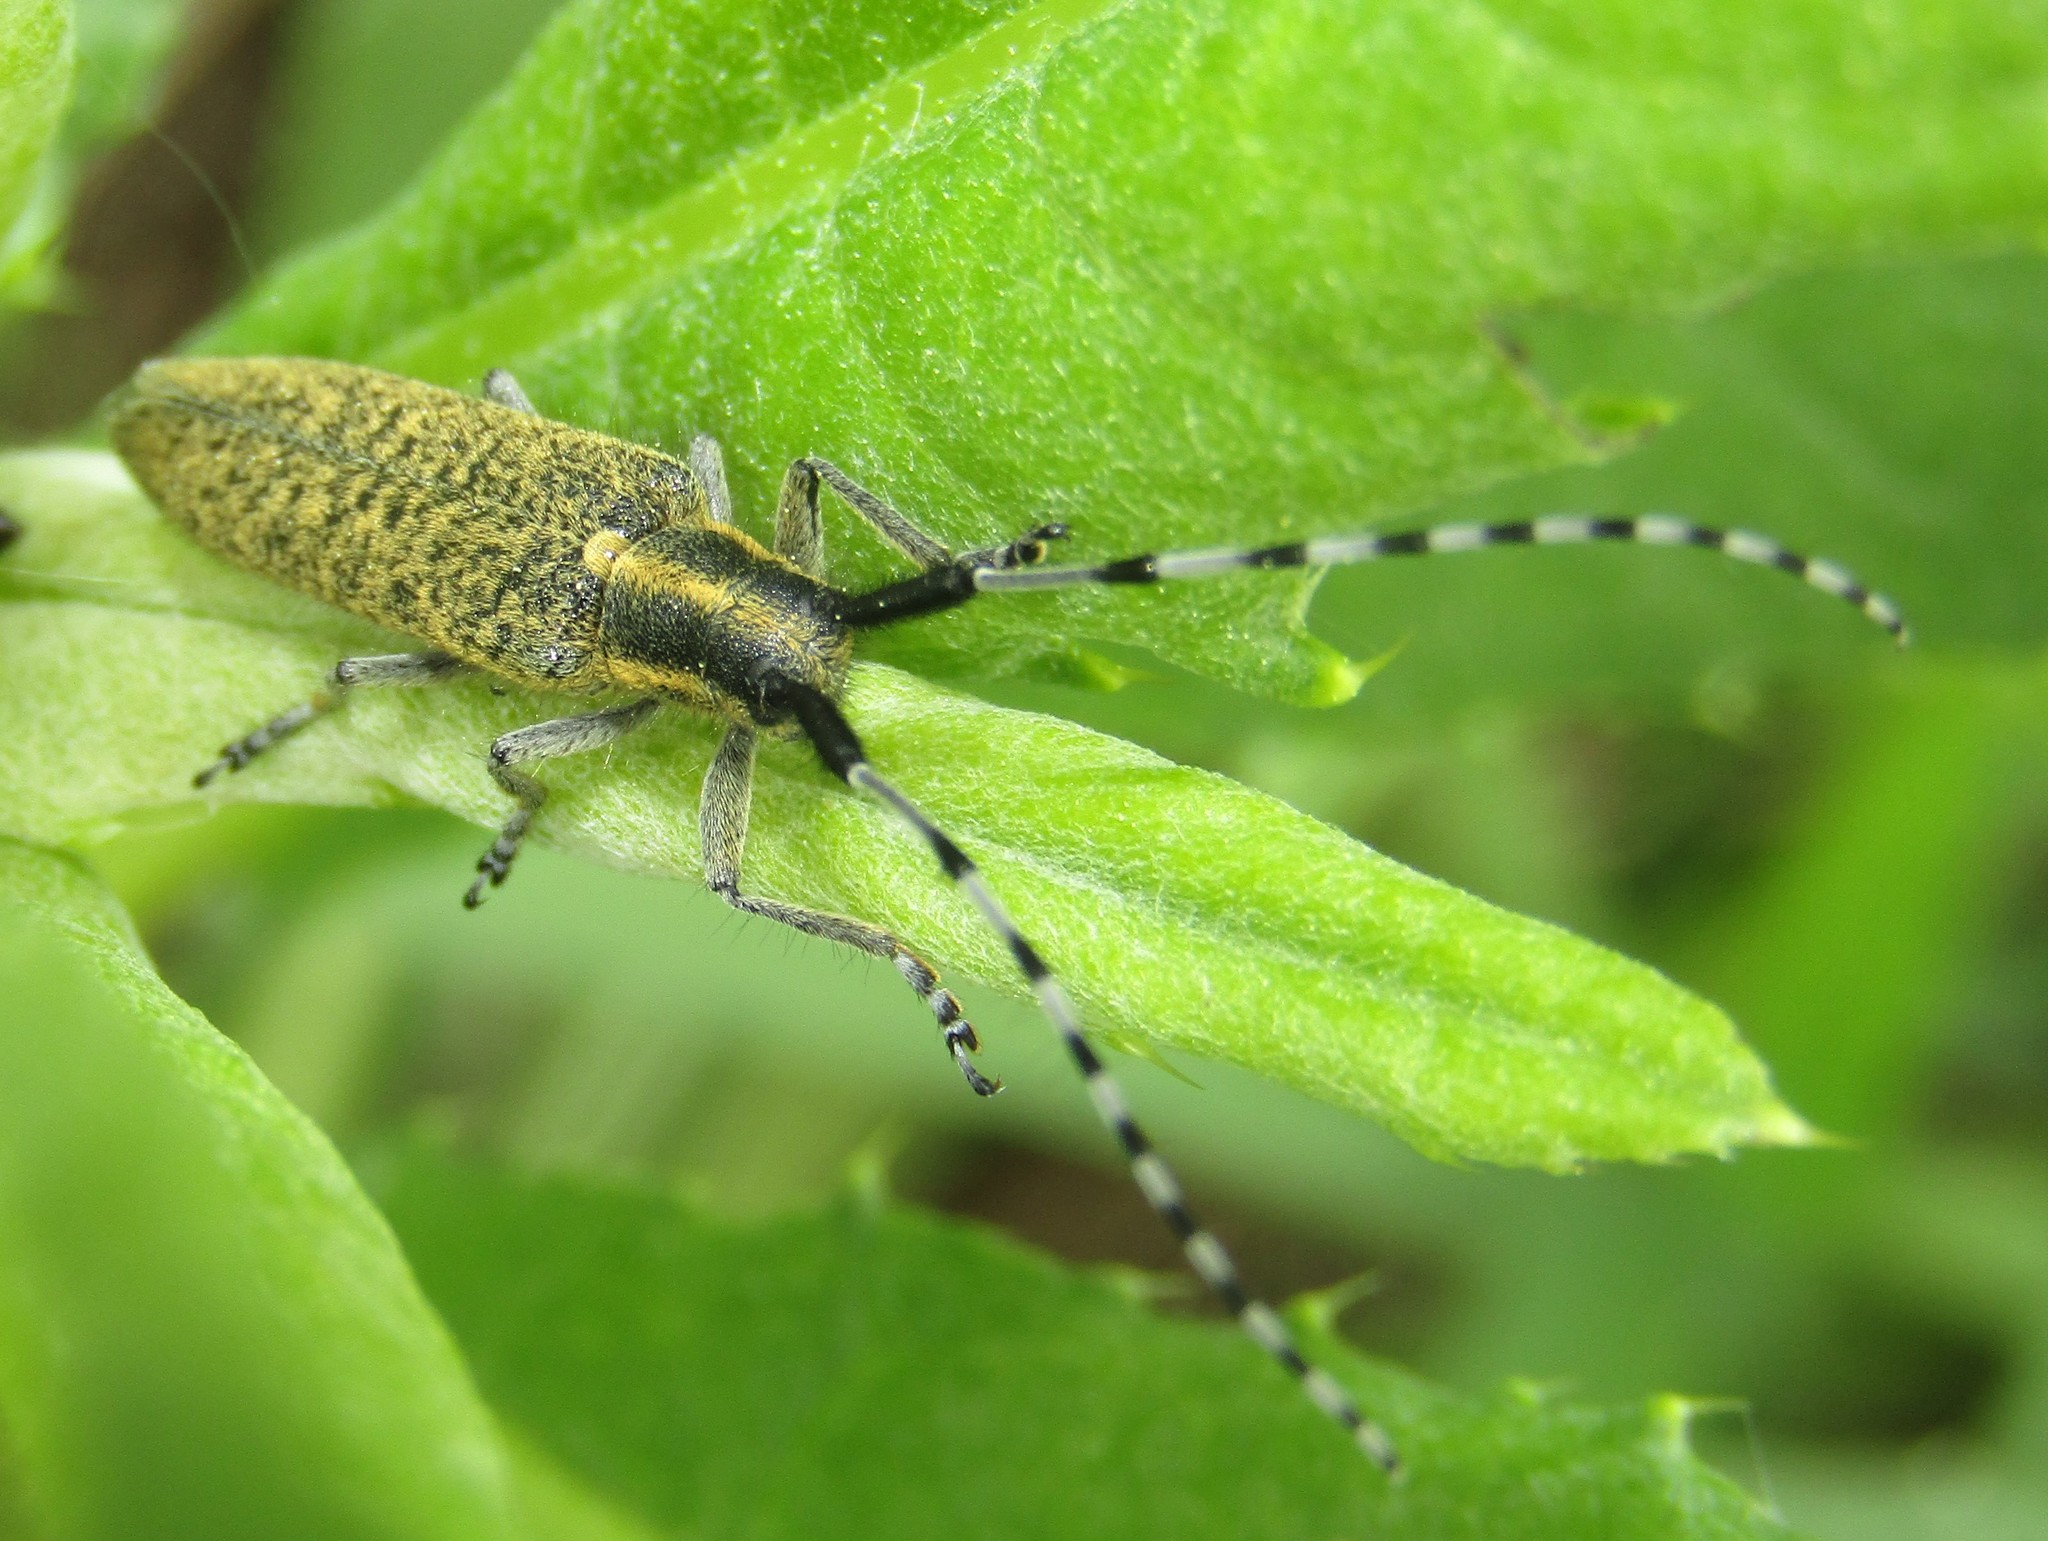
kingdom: Animalia
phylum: Arthropoda
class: Insecta
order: Coleoptera
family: Cerambycidae
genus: Agapanthia
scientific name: Agapanthia villosoviridescens
